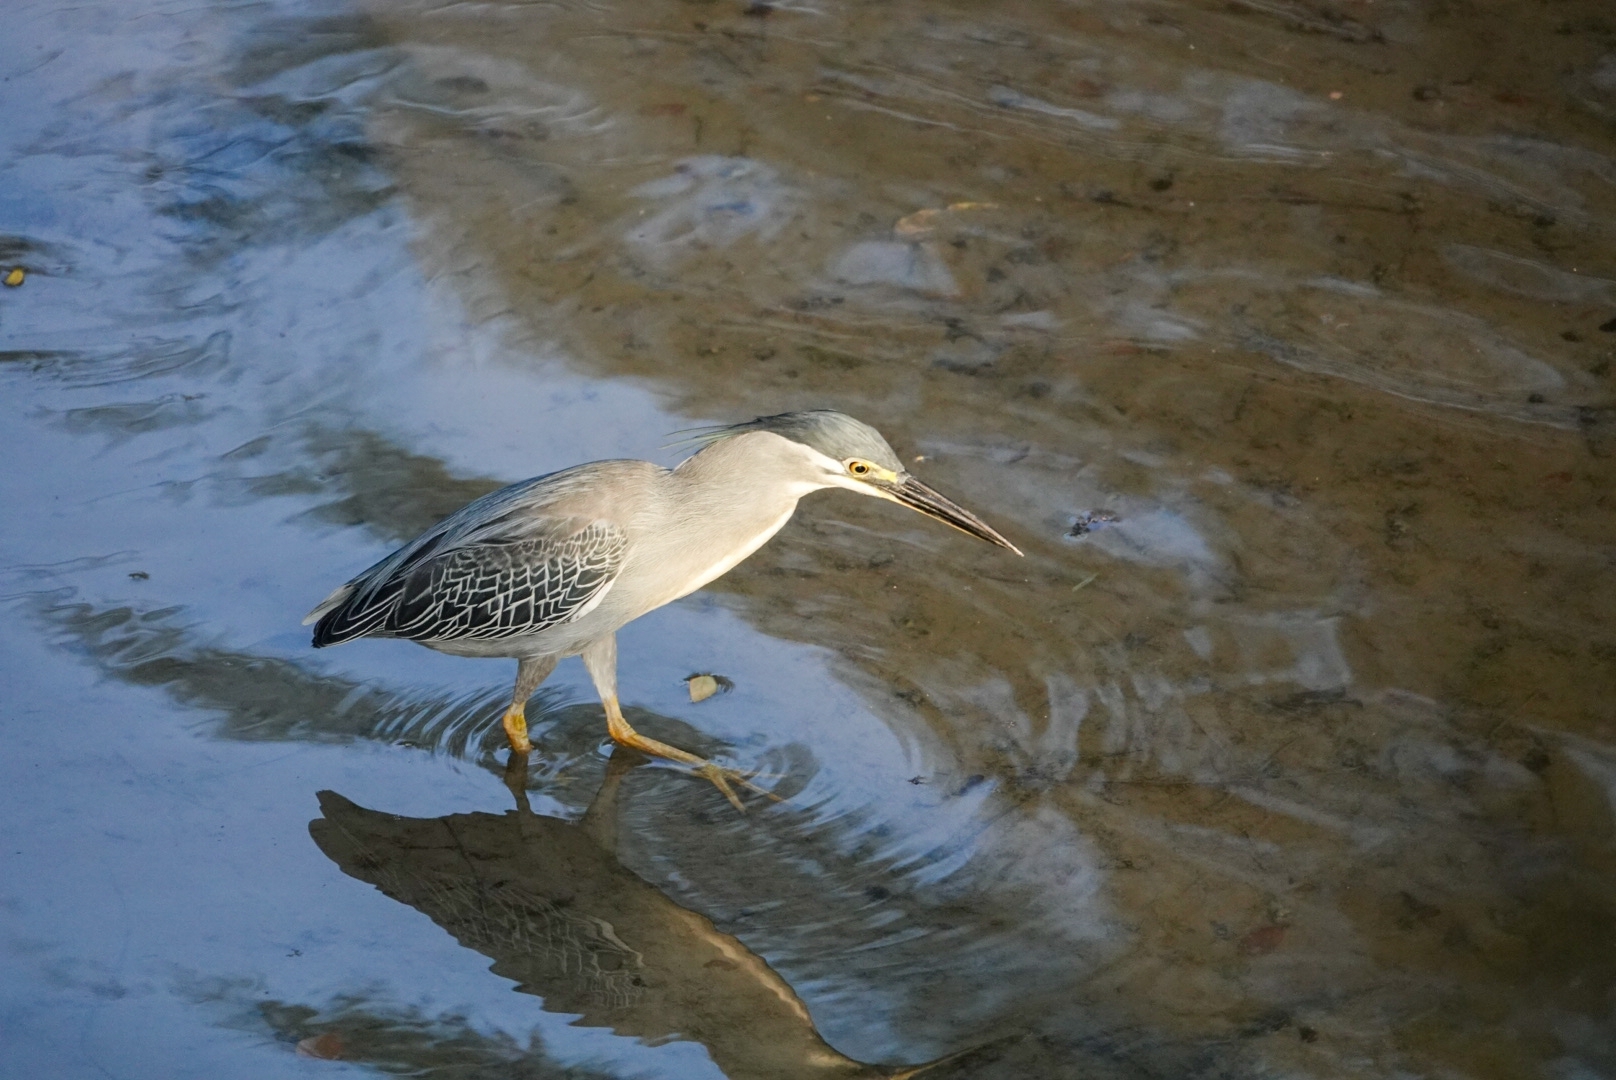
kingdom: Animalia
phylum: Chordata
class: Aves
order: Pelecaniformes
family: Ardeidae
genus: Butorides
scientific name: Butorides striata
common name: Striated heron
